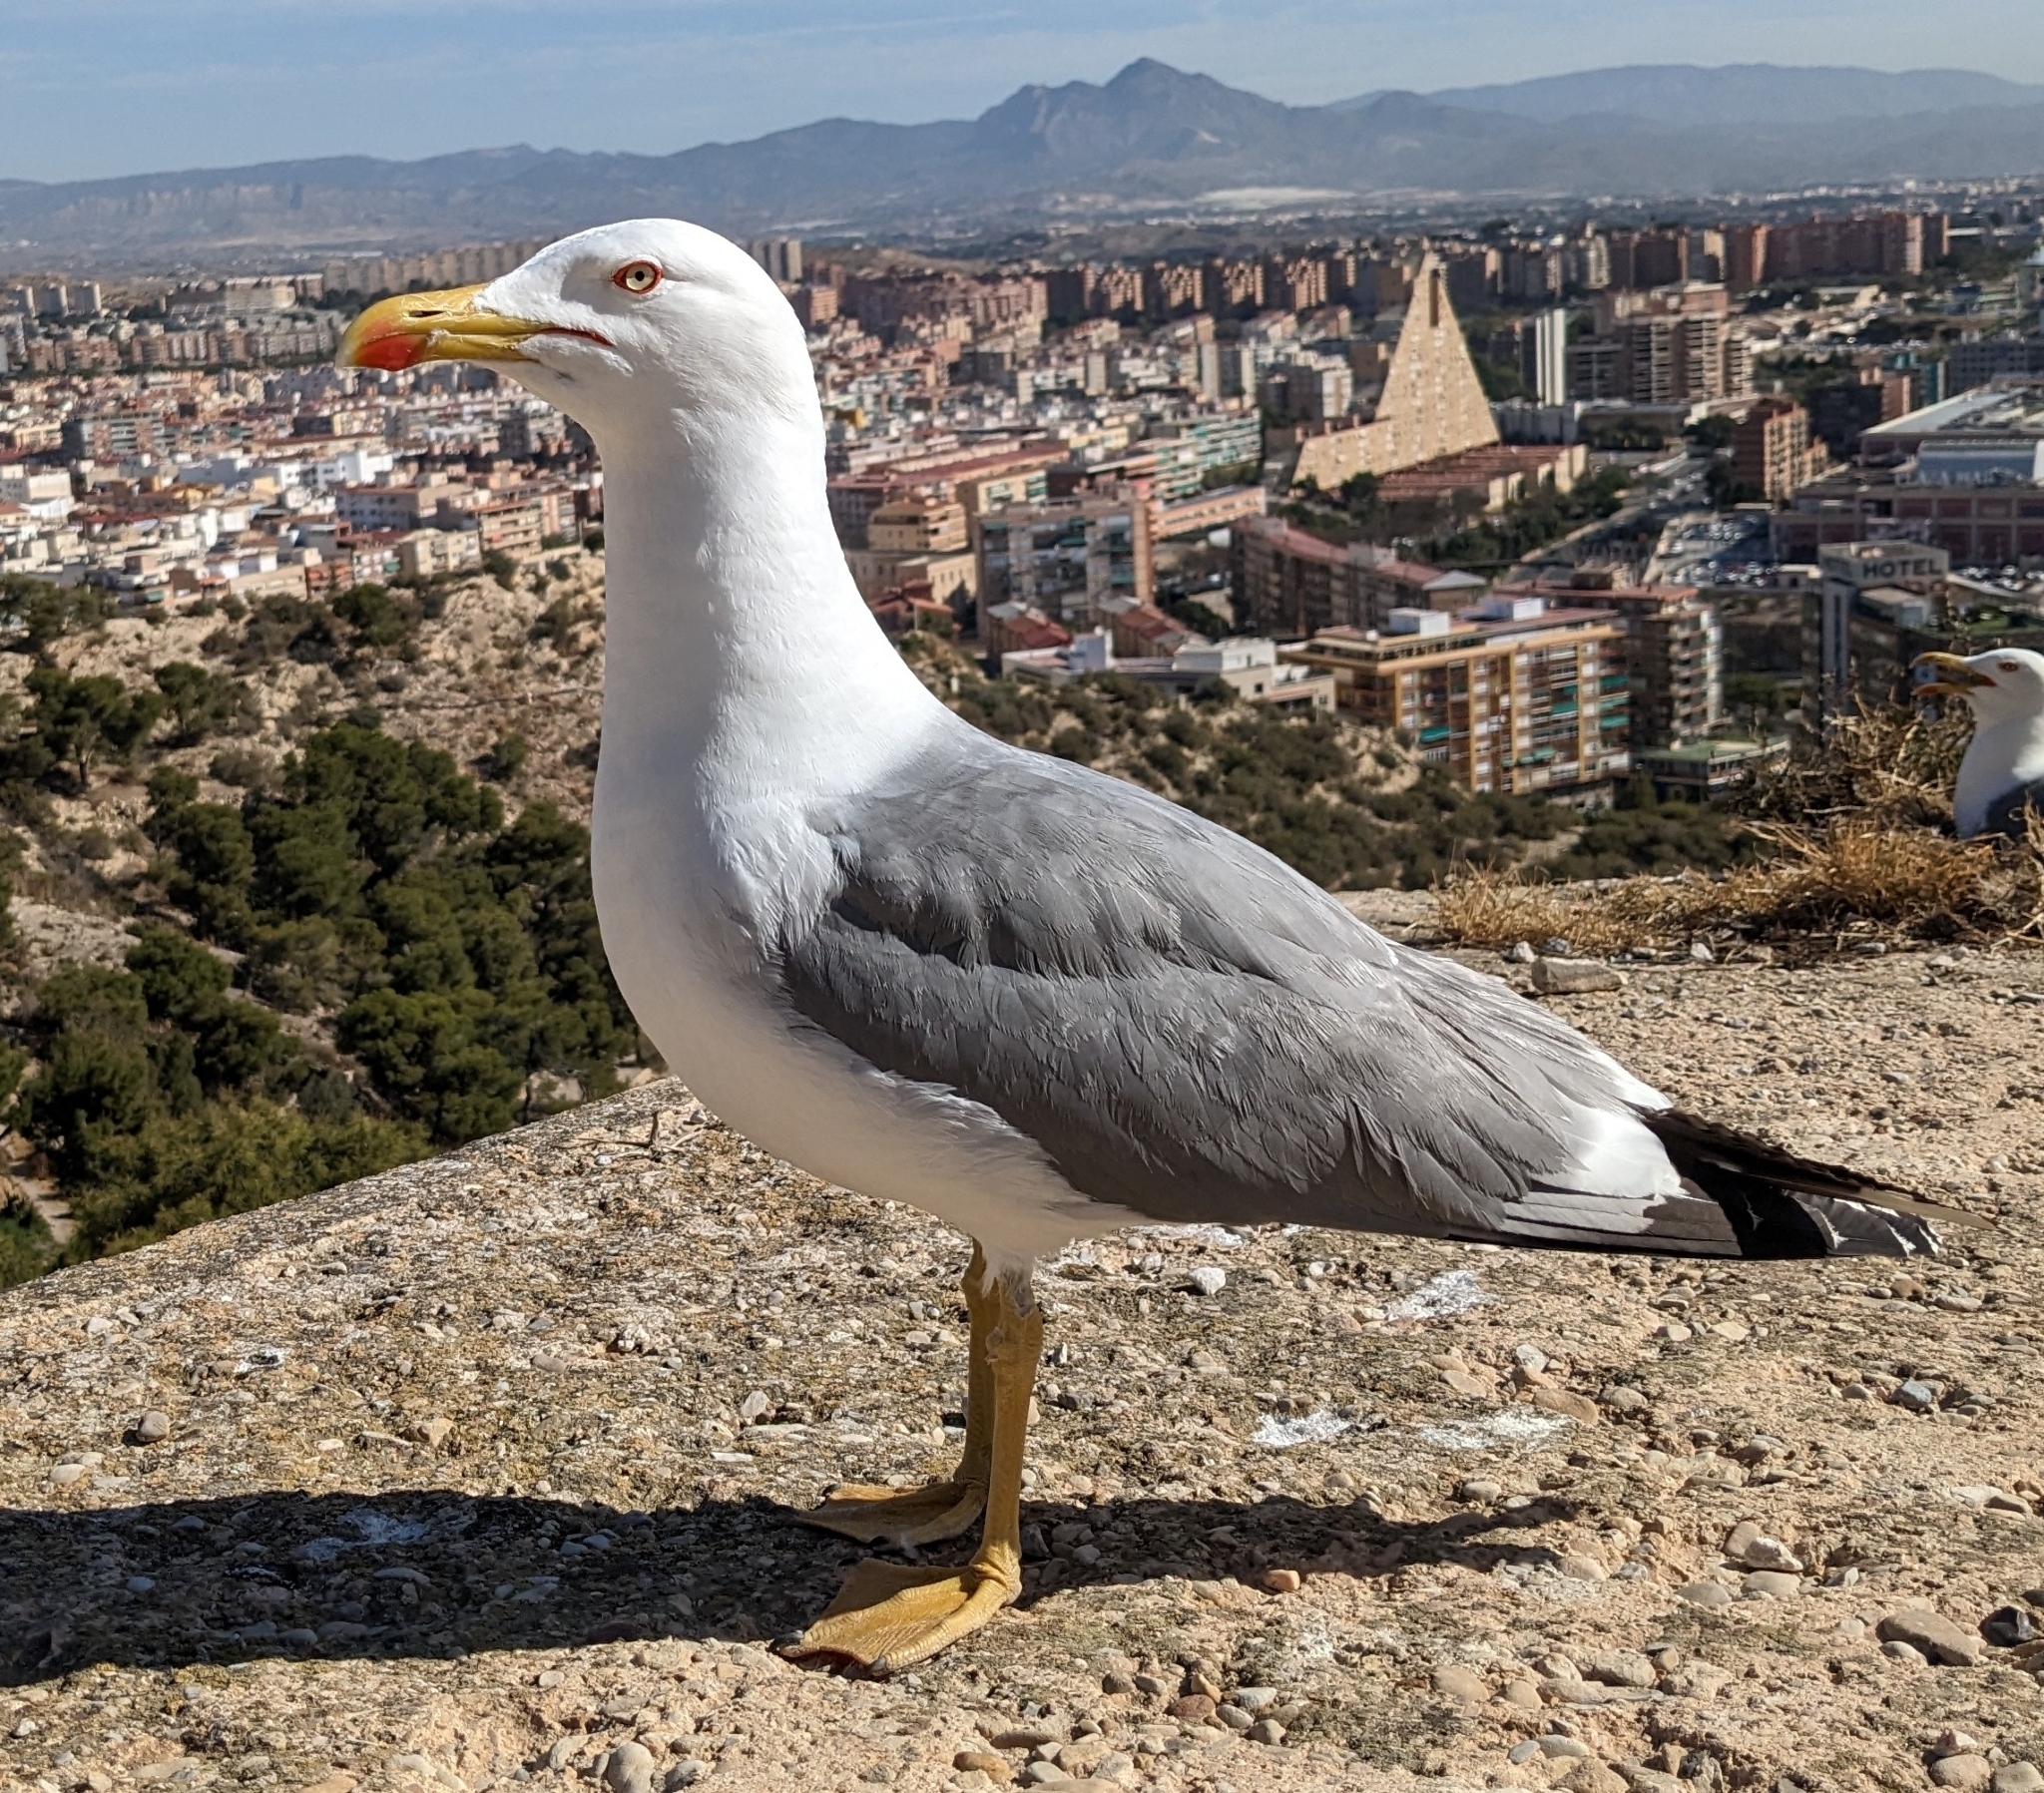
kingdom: Animalia
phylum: Chordata
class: Aves
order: Charadriiformes
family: Laridae
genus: Larus
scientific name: Larus michahellis
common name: Yellow-legged gull
